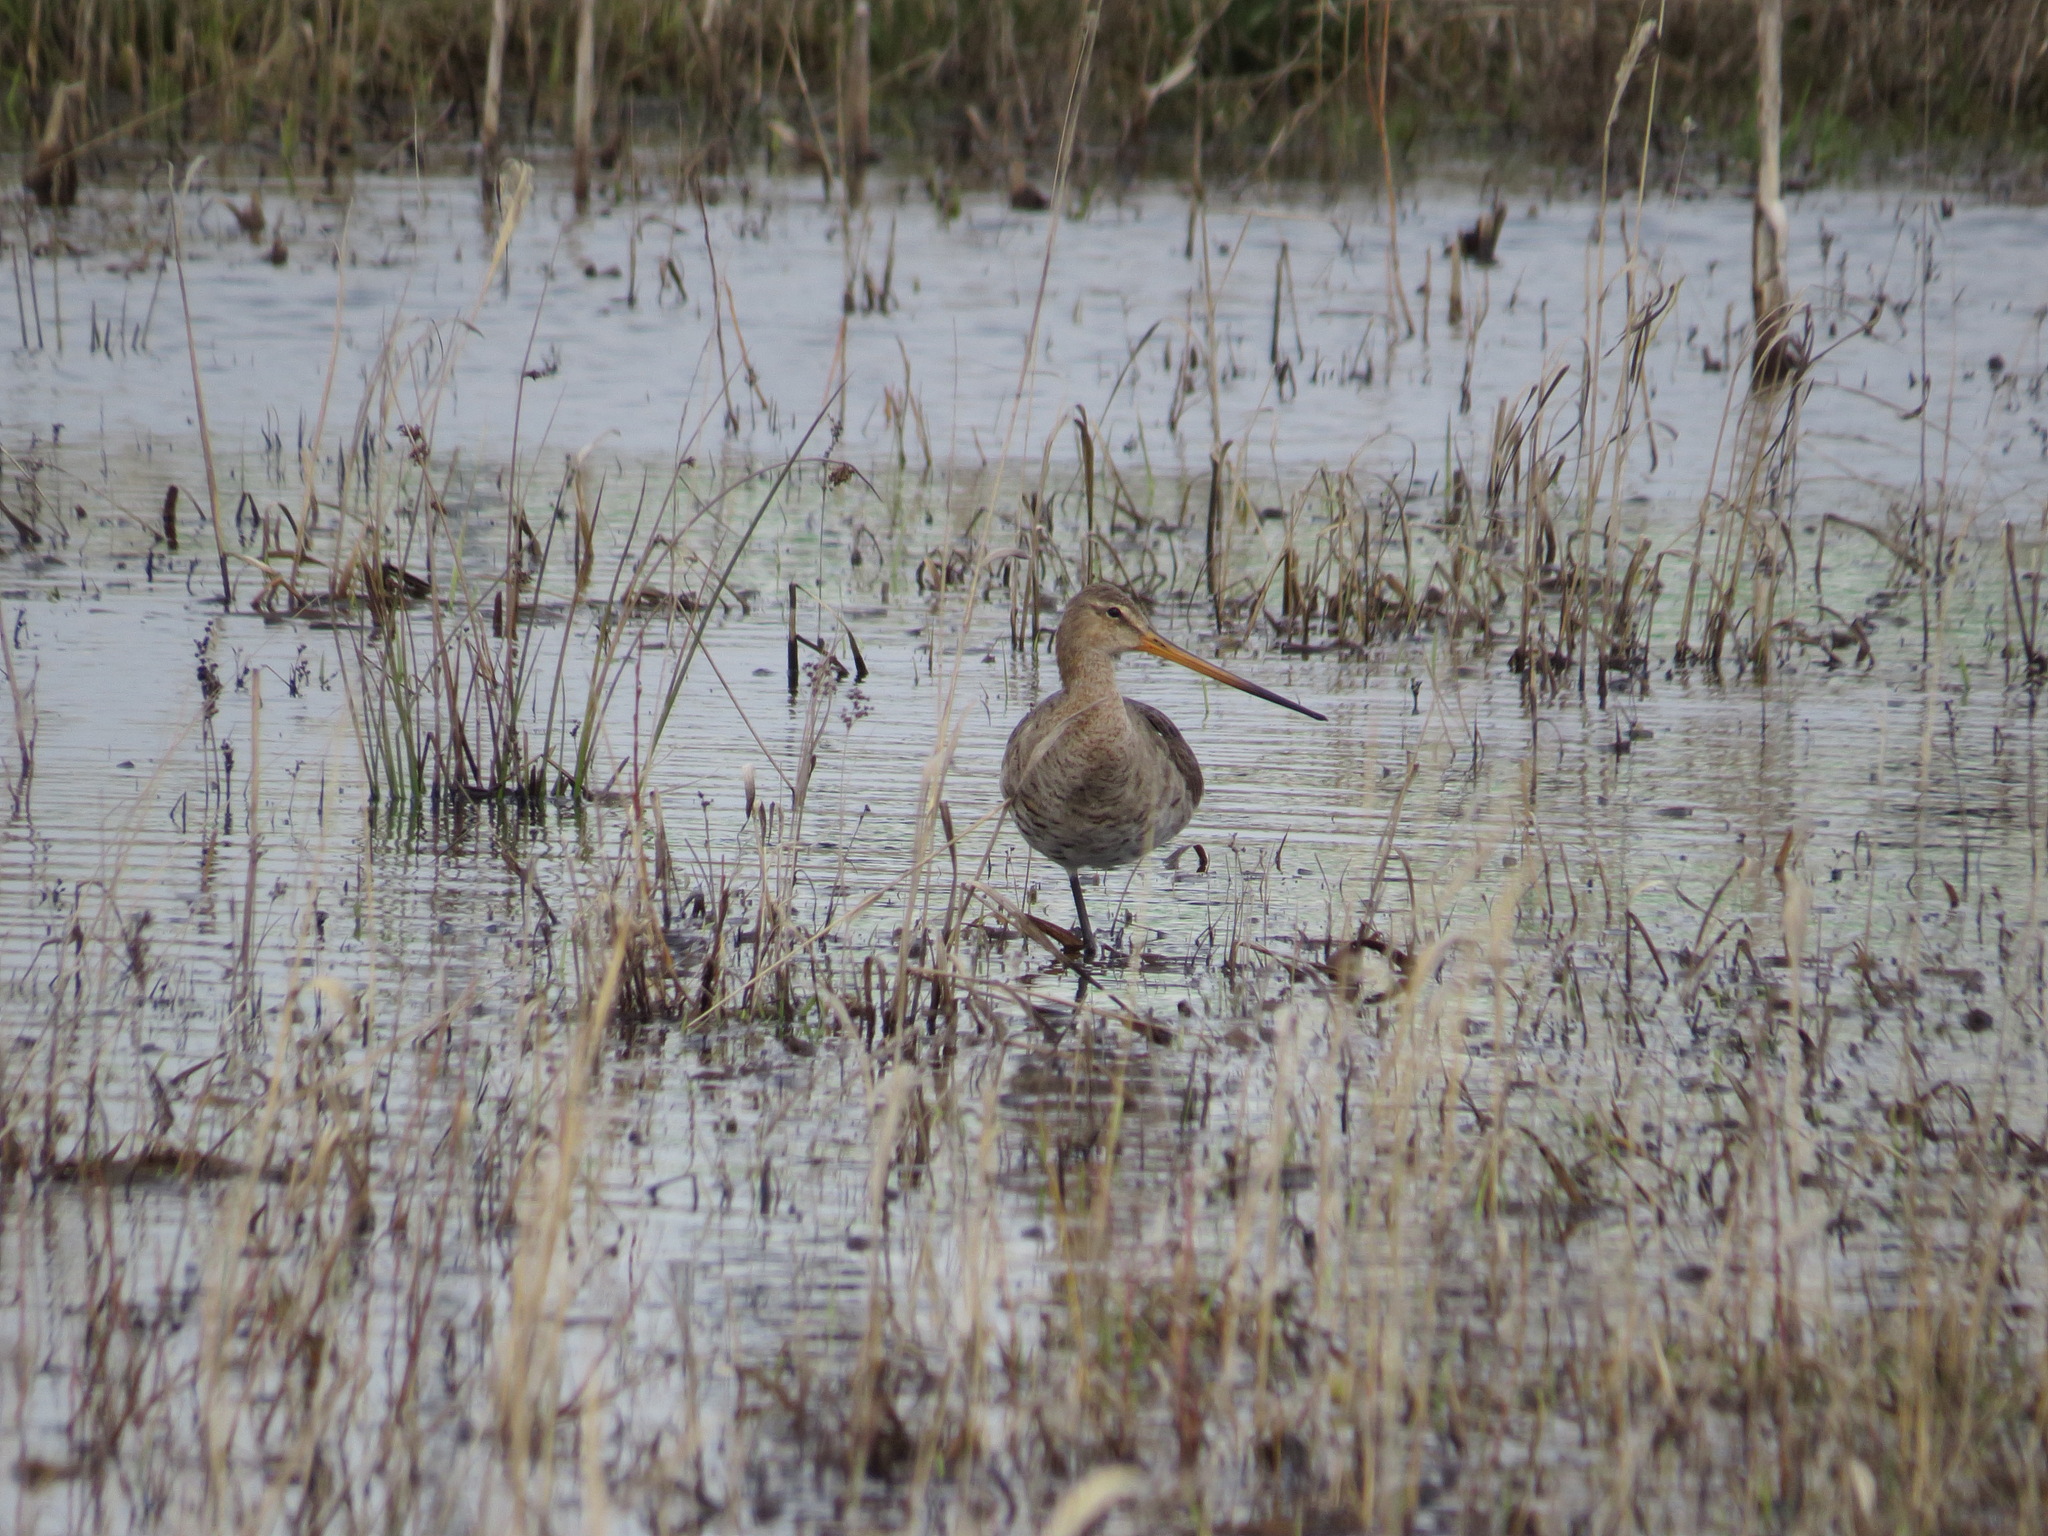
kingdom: Animalia
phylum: Chordata
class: Aves
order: Charadriiformes
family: Scolopacidae
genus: Limosa
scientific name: Limosa limosa
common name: Black-tailed godwit
